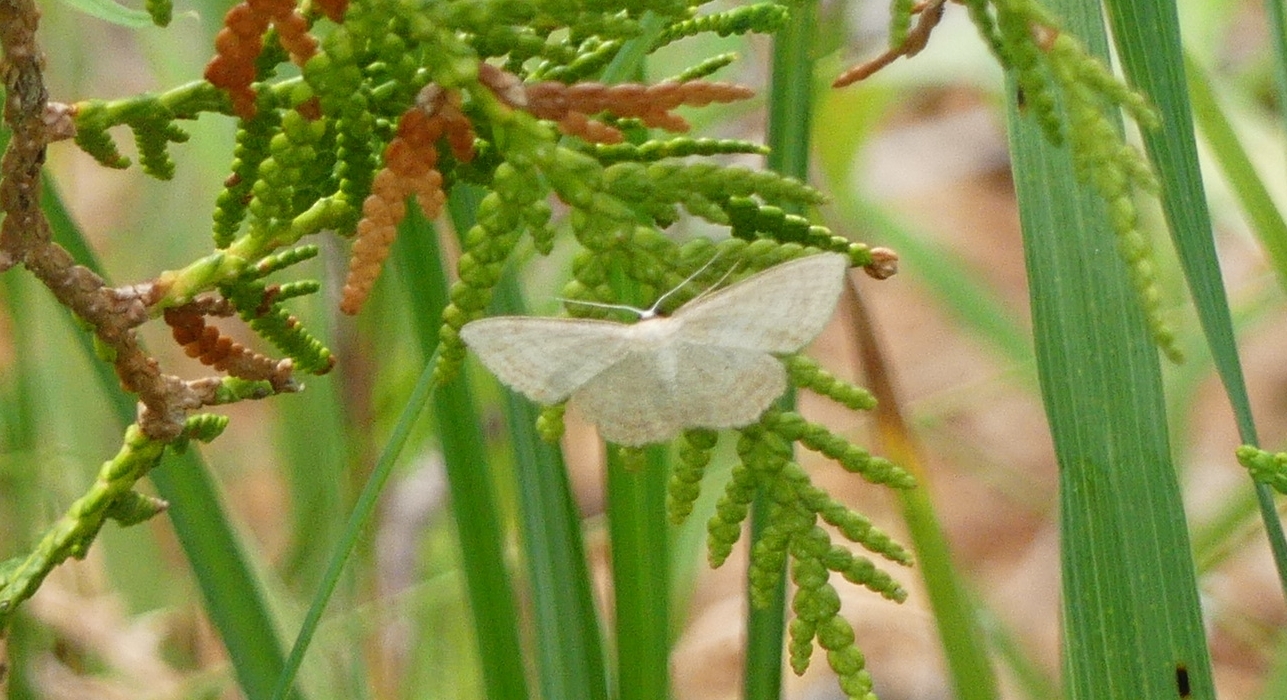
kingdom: Animalia
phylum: Arthropoda
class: Insecta
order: Lepidoptera
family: Geometridae
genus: Scopula
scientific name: Scopula inductata
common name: Soft-lined wave
